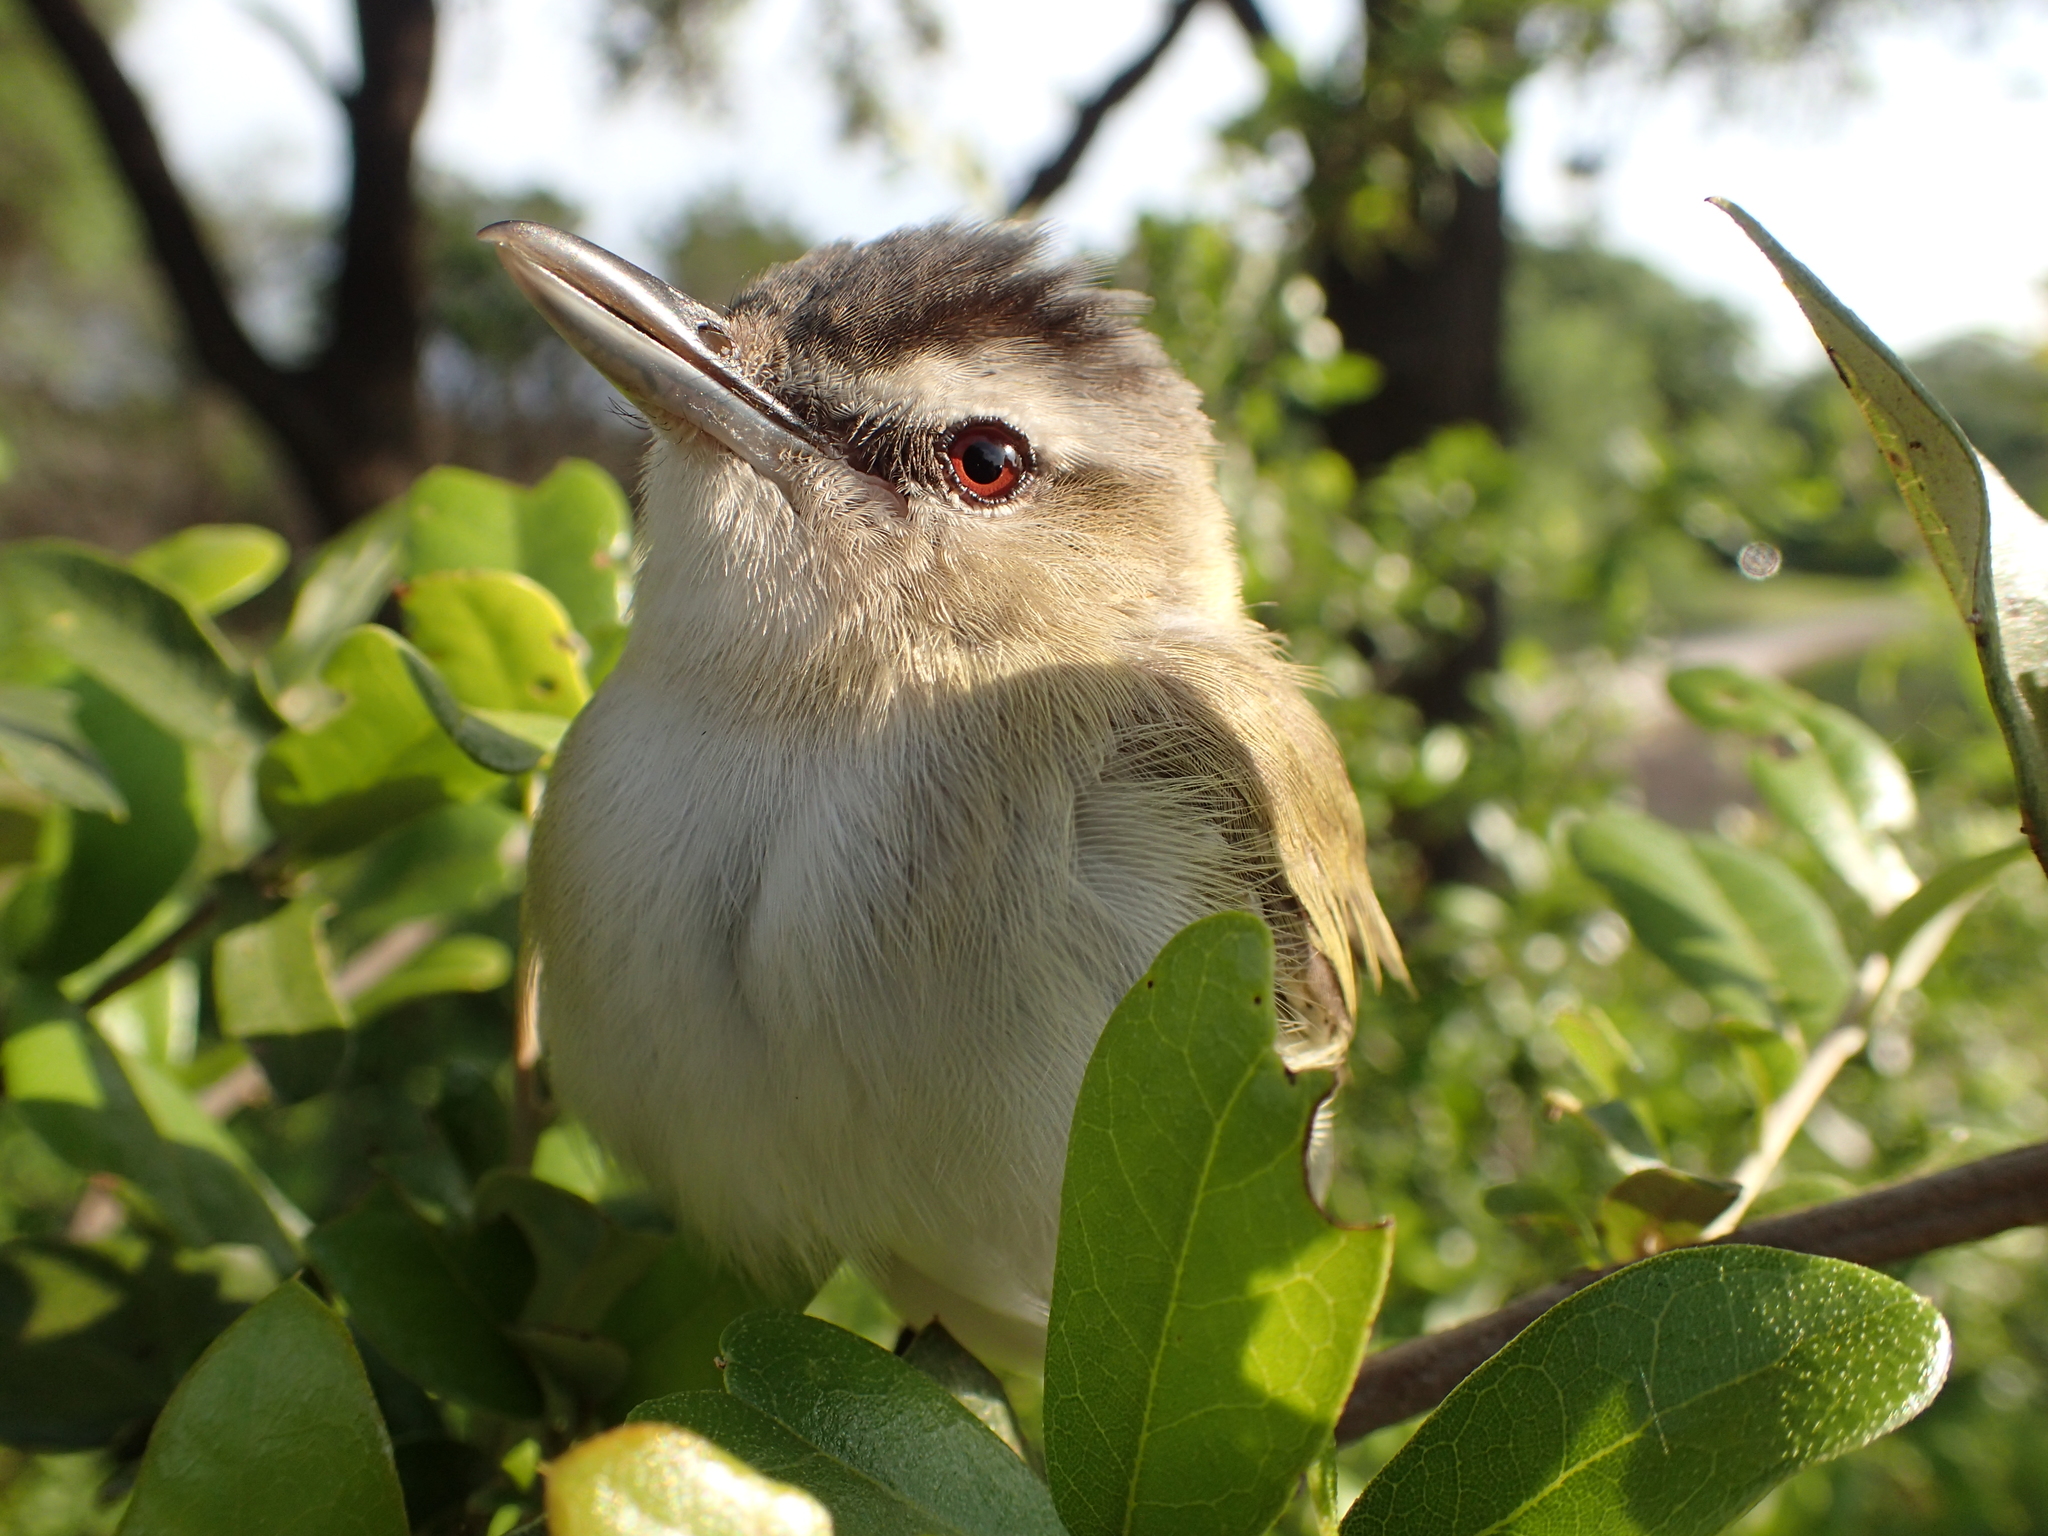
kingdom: Animalia
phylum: Chordata
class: Aves
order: Passeriformes
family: Vireonidae
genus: Vireo
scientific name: Vireo olivaceus
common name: Red-eyed vireo
